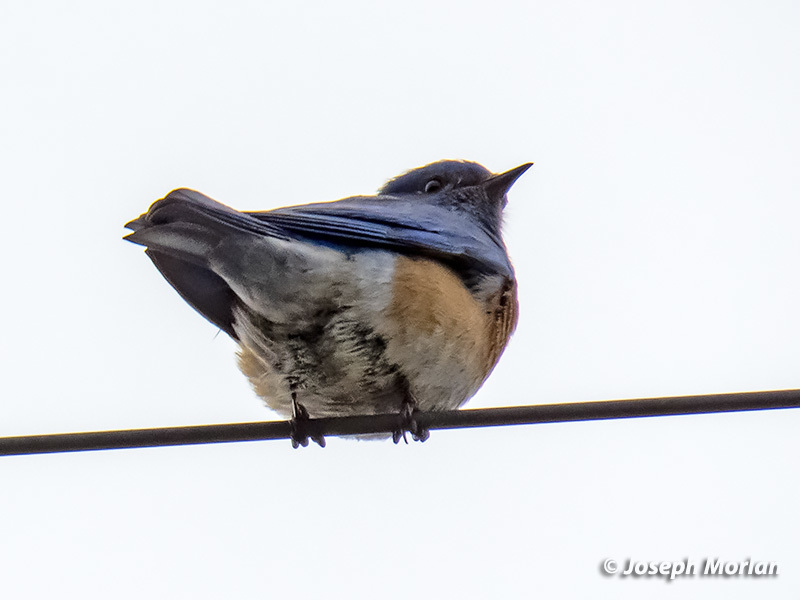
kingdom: Animalia
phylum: Chordata
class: Aves
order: Passeriformes
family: Turdidae
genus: Sialia
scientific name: Sialia mexicana
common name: Western bluebird
